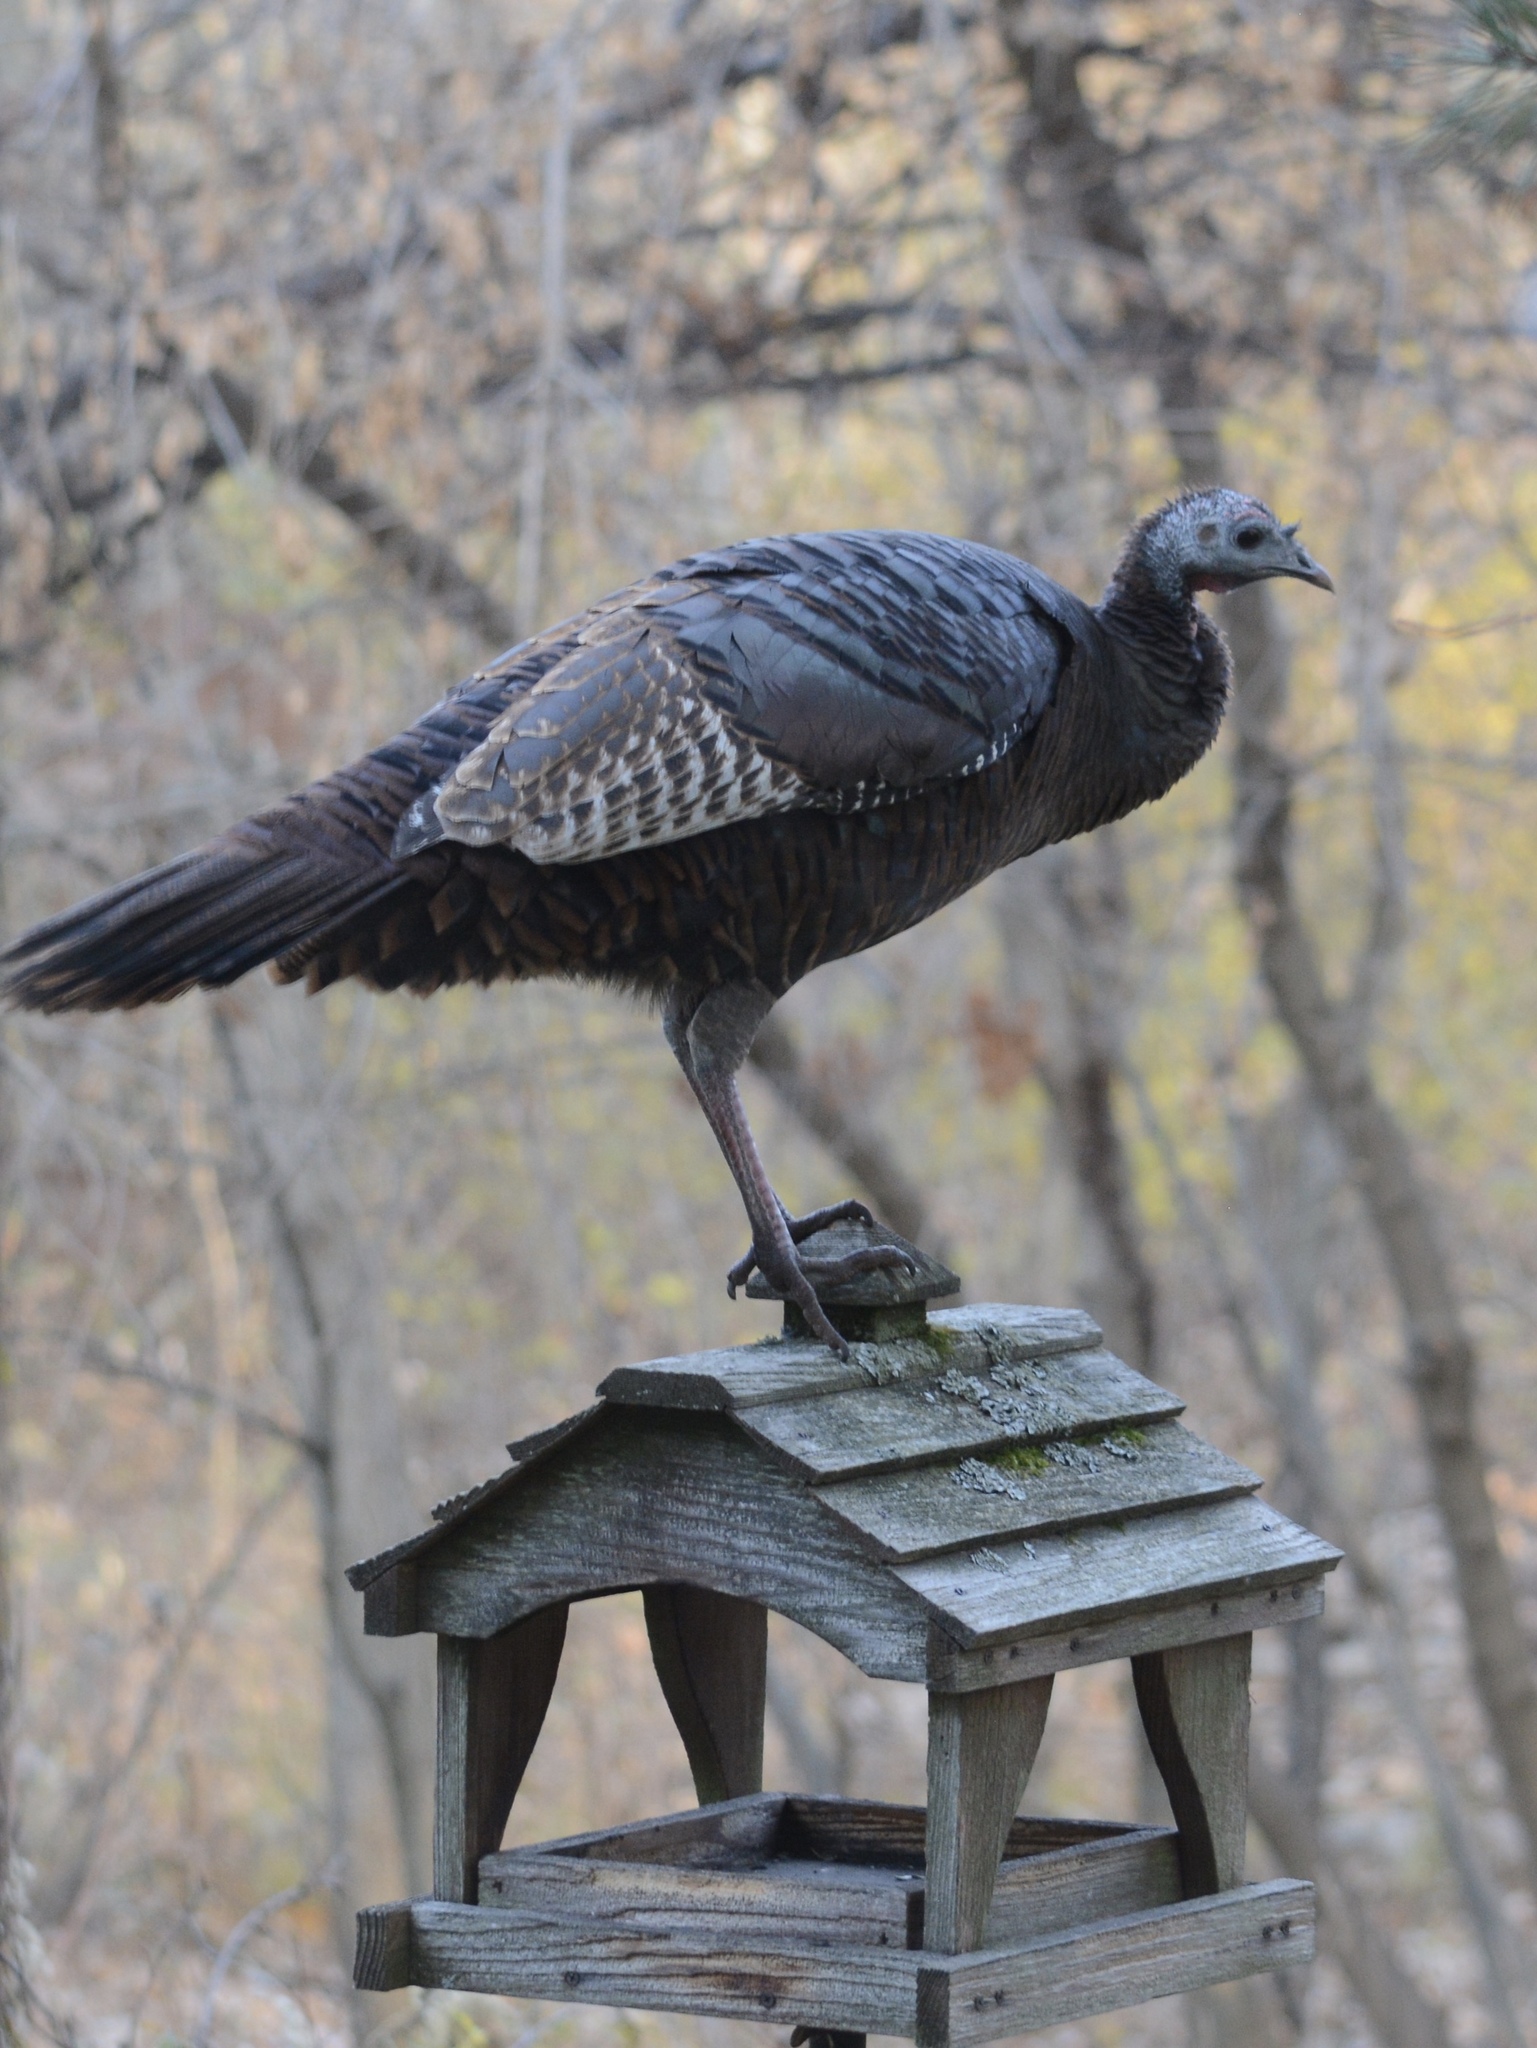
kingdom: Animalia
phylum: Chordata
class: Aves
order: Galliformes
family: Phasianidae
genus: Meleagris
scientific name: Meleagris gallopavo
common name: Wild turkey
